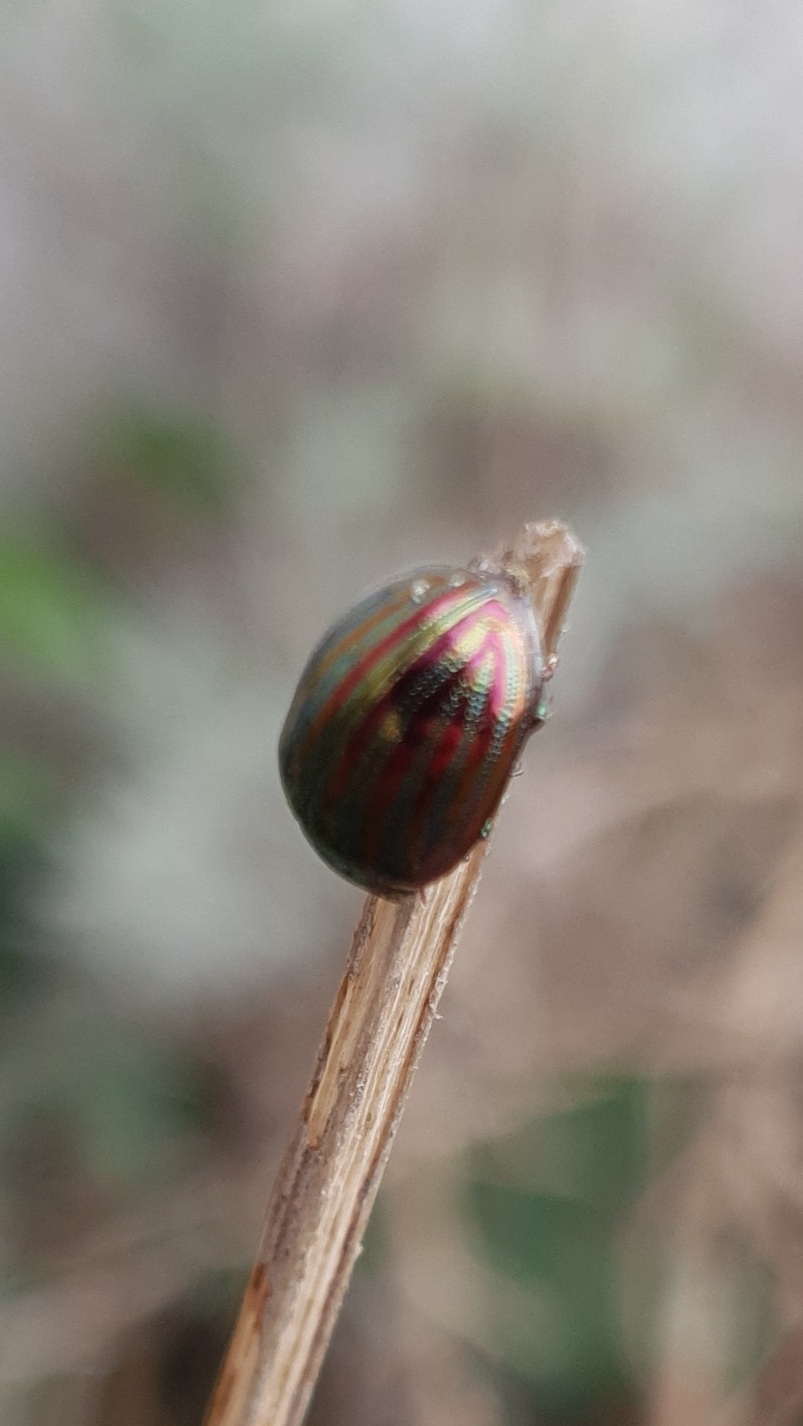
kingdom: Animalia
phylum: Arthropoda
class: Insecta
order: Coleoptera
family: Chrysomelidae
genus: Chrysolina
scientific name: Chrysolina americana
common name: Rosemary beetle
